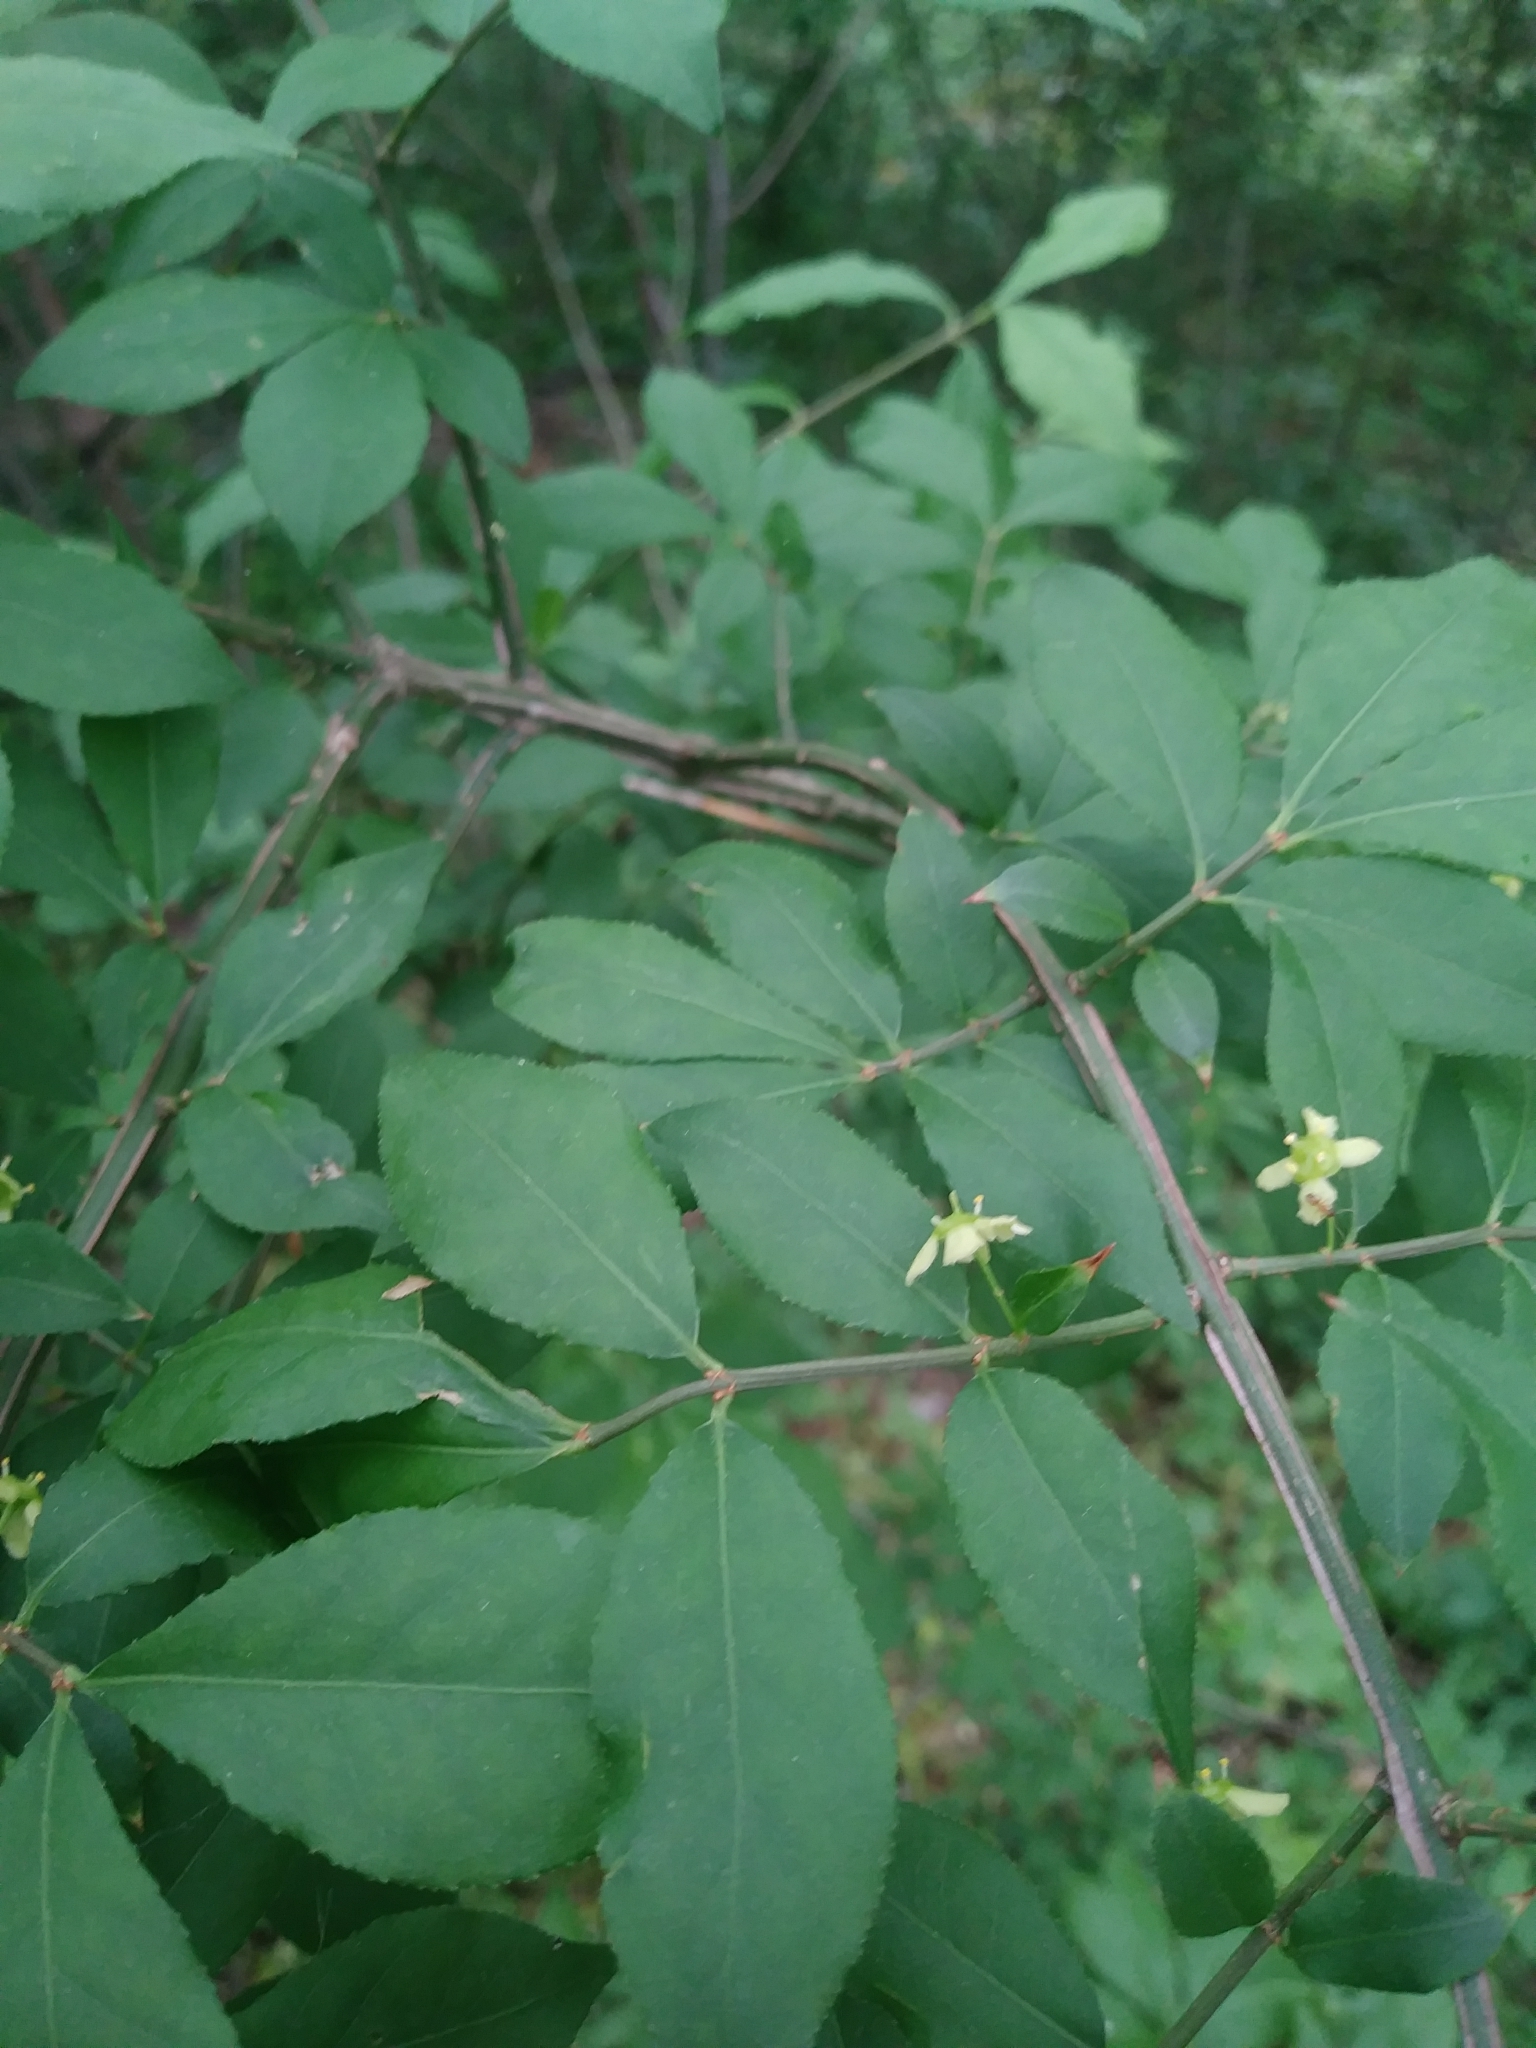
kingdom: Plantae
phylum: Tracheophyta
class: Magnoliopsida
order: Celastrales
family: Celastraceae
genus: Euonymus
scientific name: Euonymus alatus
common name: Winged euonymus
